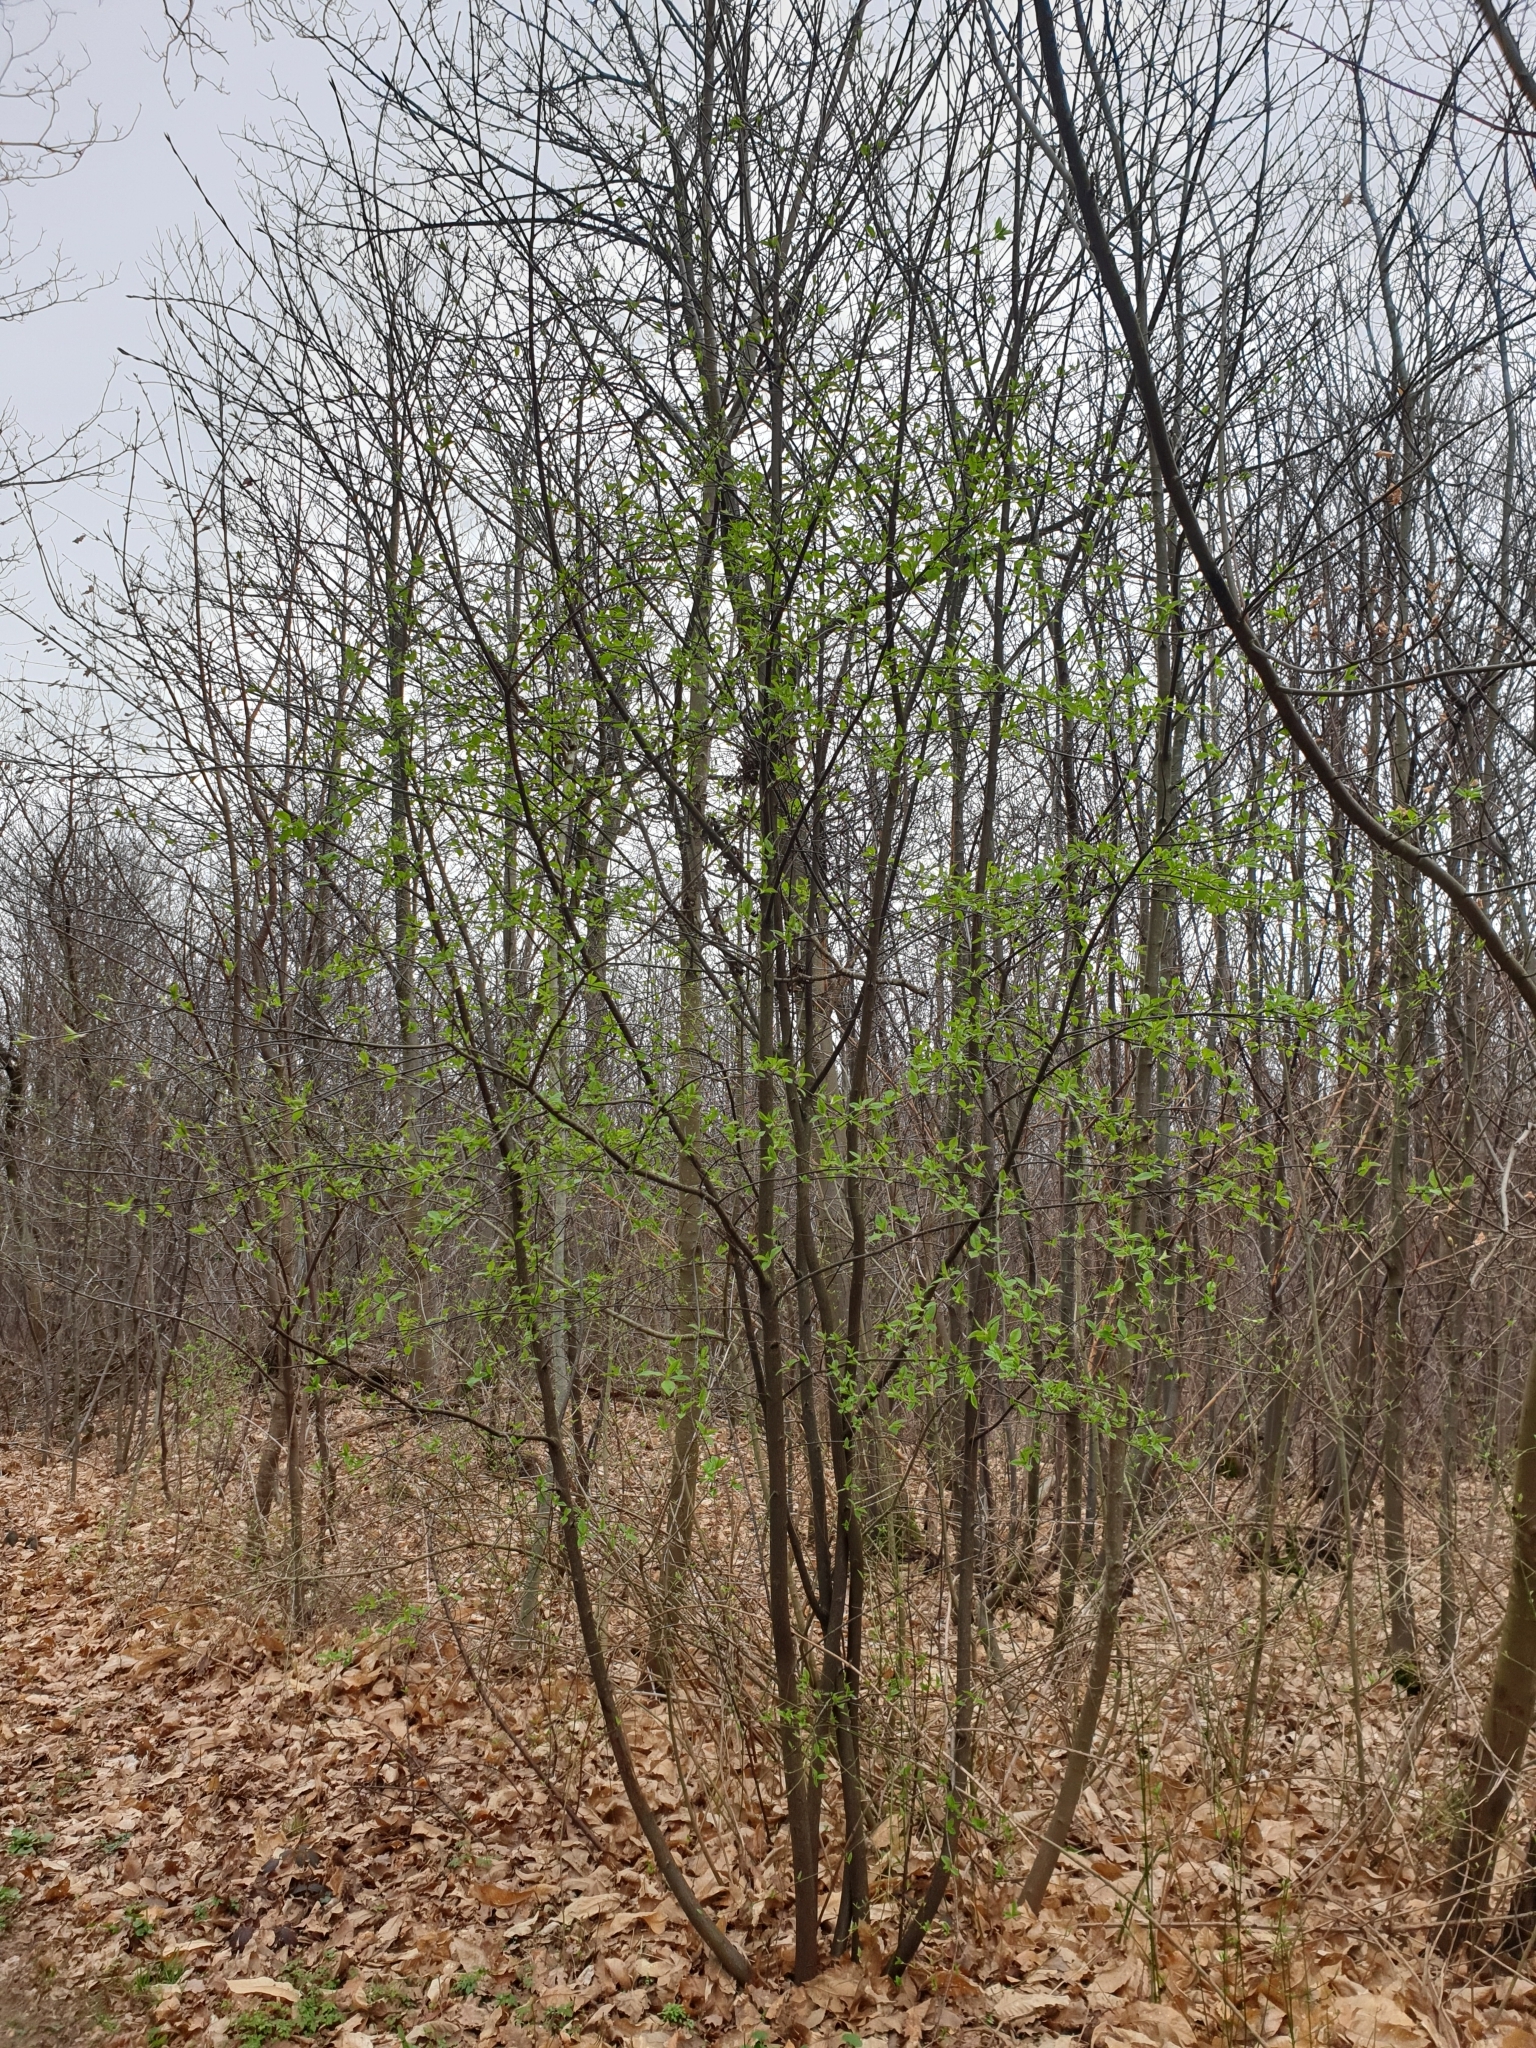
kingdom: Plantae
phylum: Tracheophyta
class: Magnoliopsida
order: Rosales
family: Rosaceae
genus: Prunus
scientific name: Prunus padus
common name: Bird cherry
